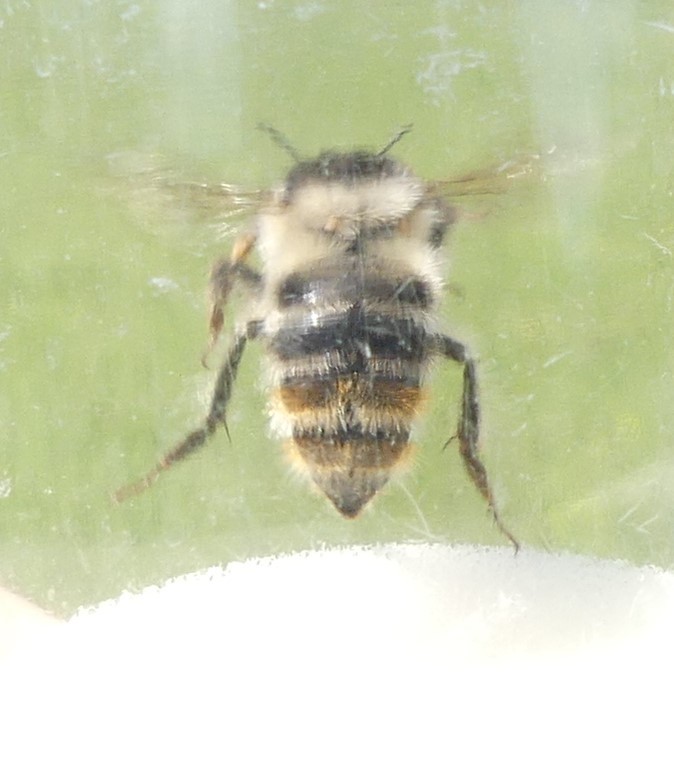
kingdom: Animalia
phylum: Arthropoda
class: Insecta
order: Hymenoptera
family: Apidae
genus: Bombus
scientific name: Bombus sylvarum
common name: Shrill carder bee
